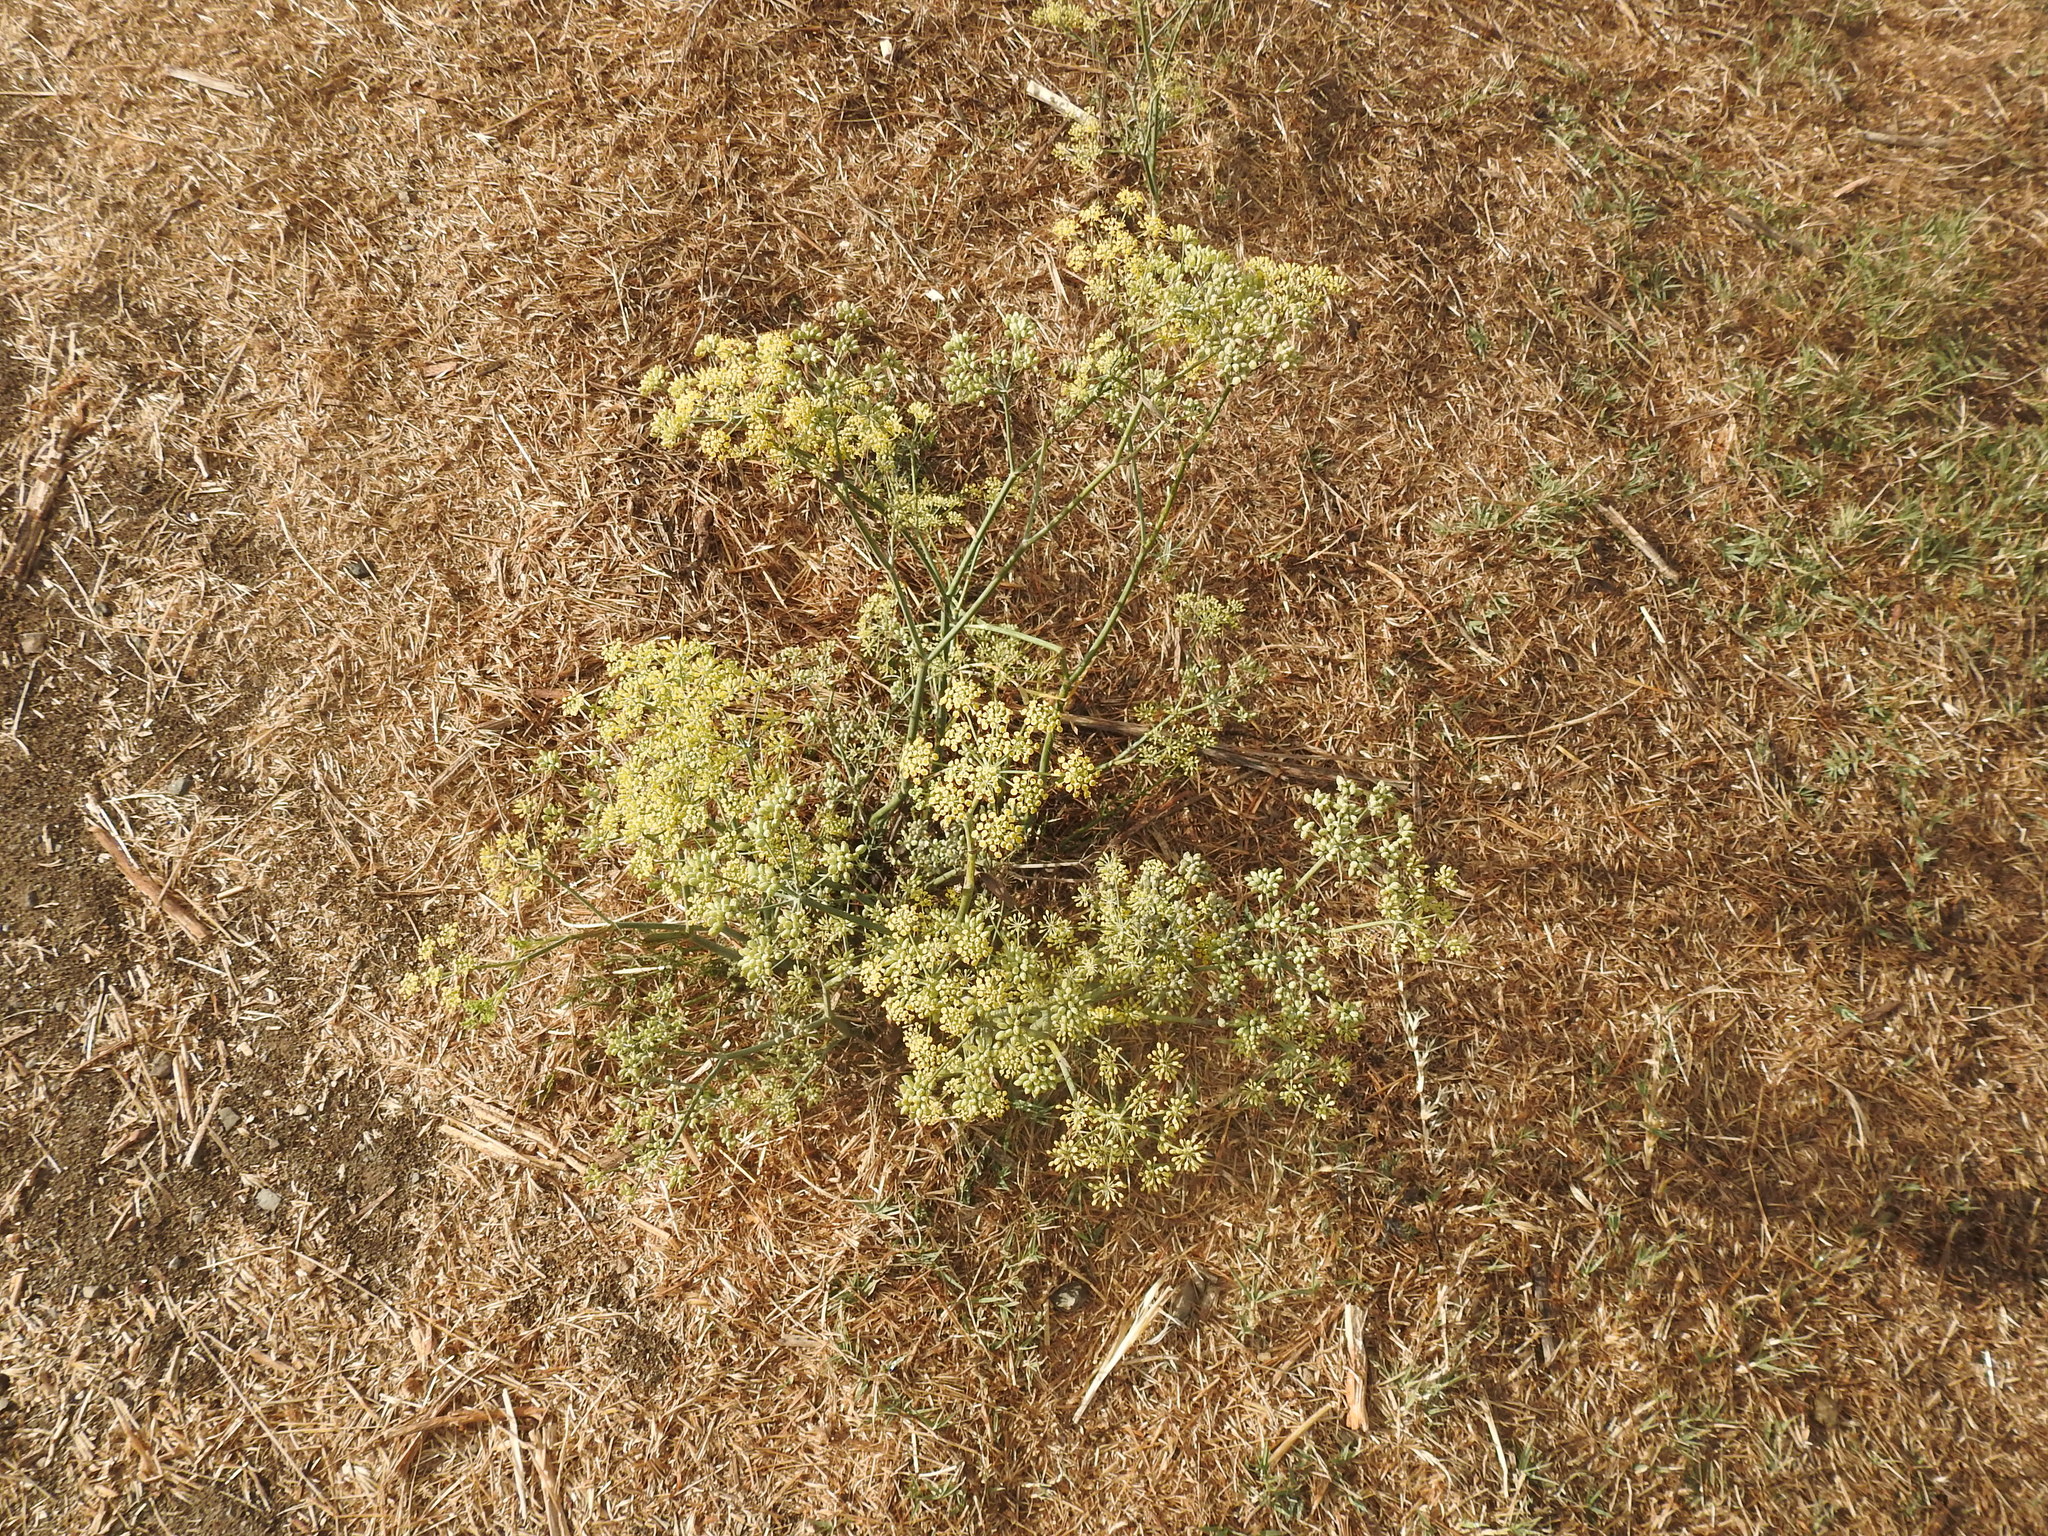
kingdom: Plantae
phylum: Tracheophyta
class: Magnoliopsida
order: Apiales
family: Apiaceae
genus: Foeniculum
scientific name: Foeniculum vulgare
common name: Fennel
